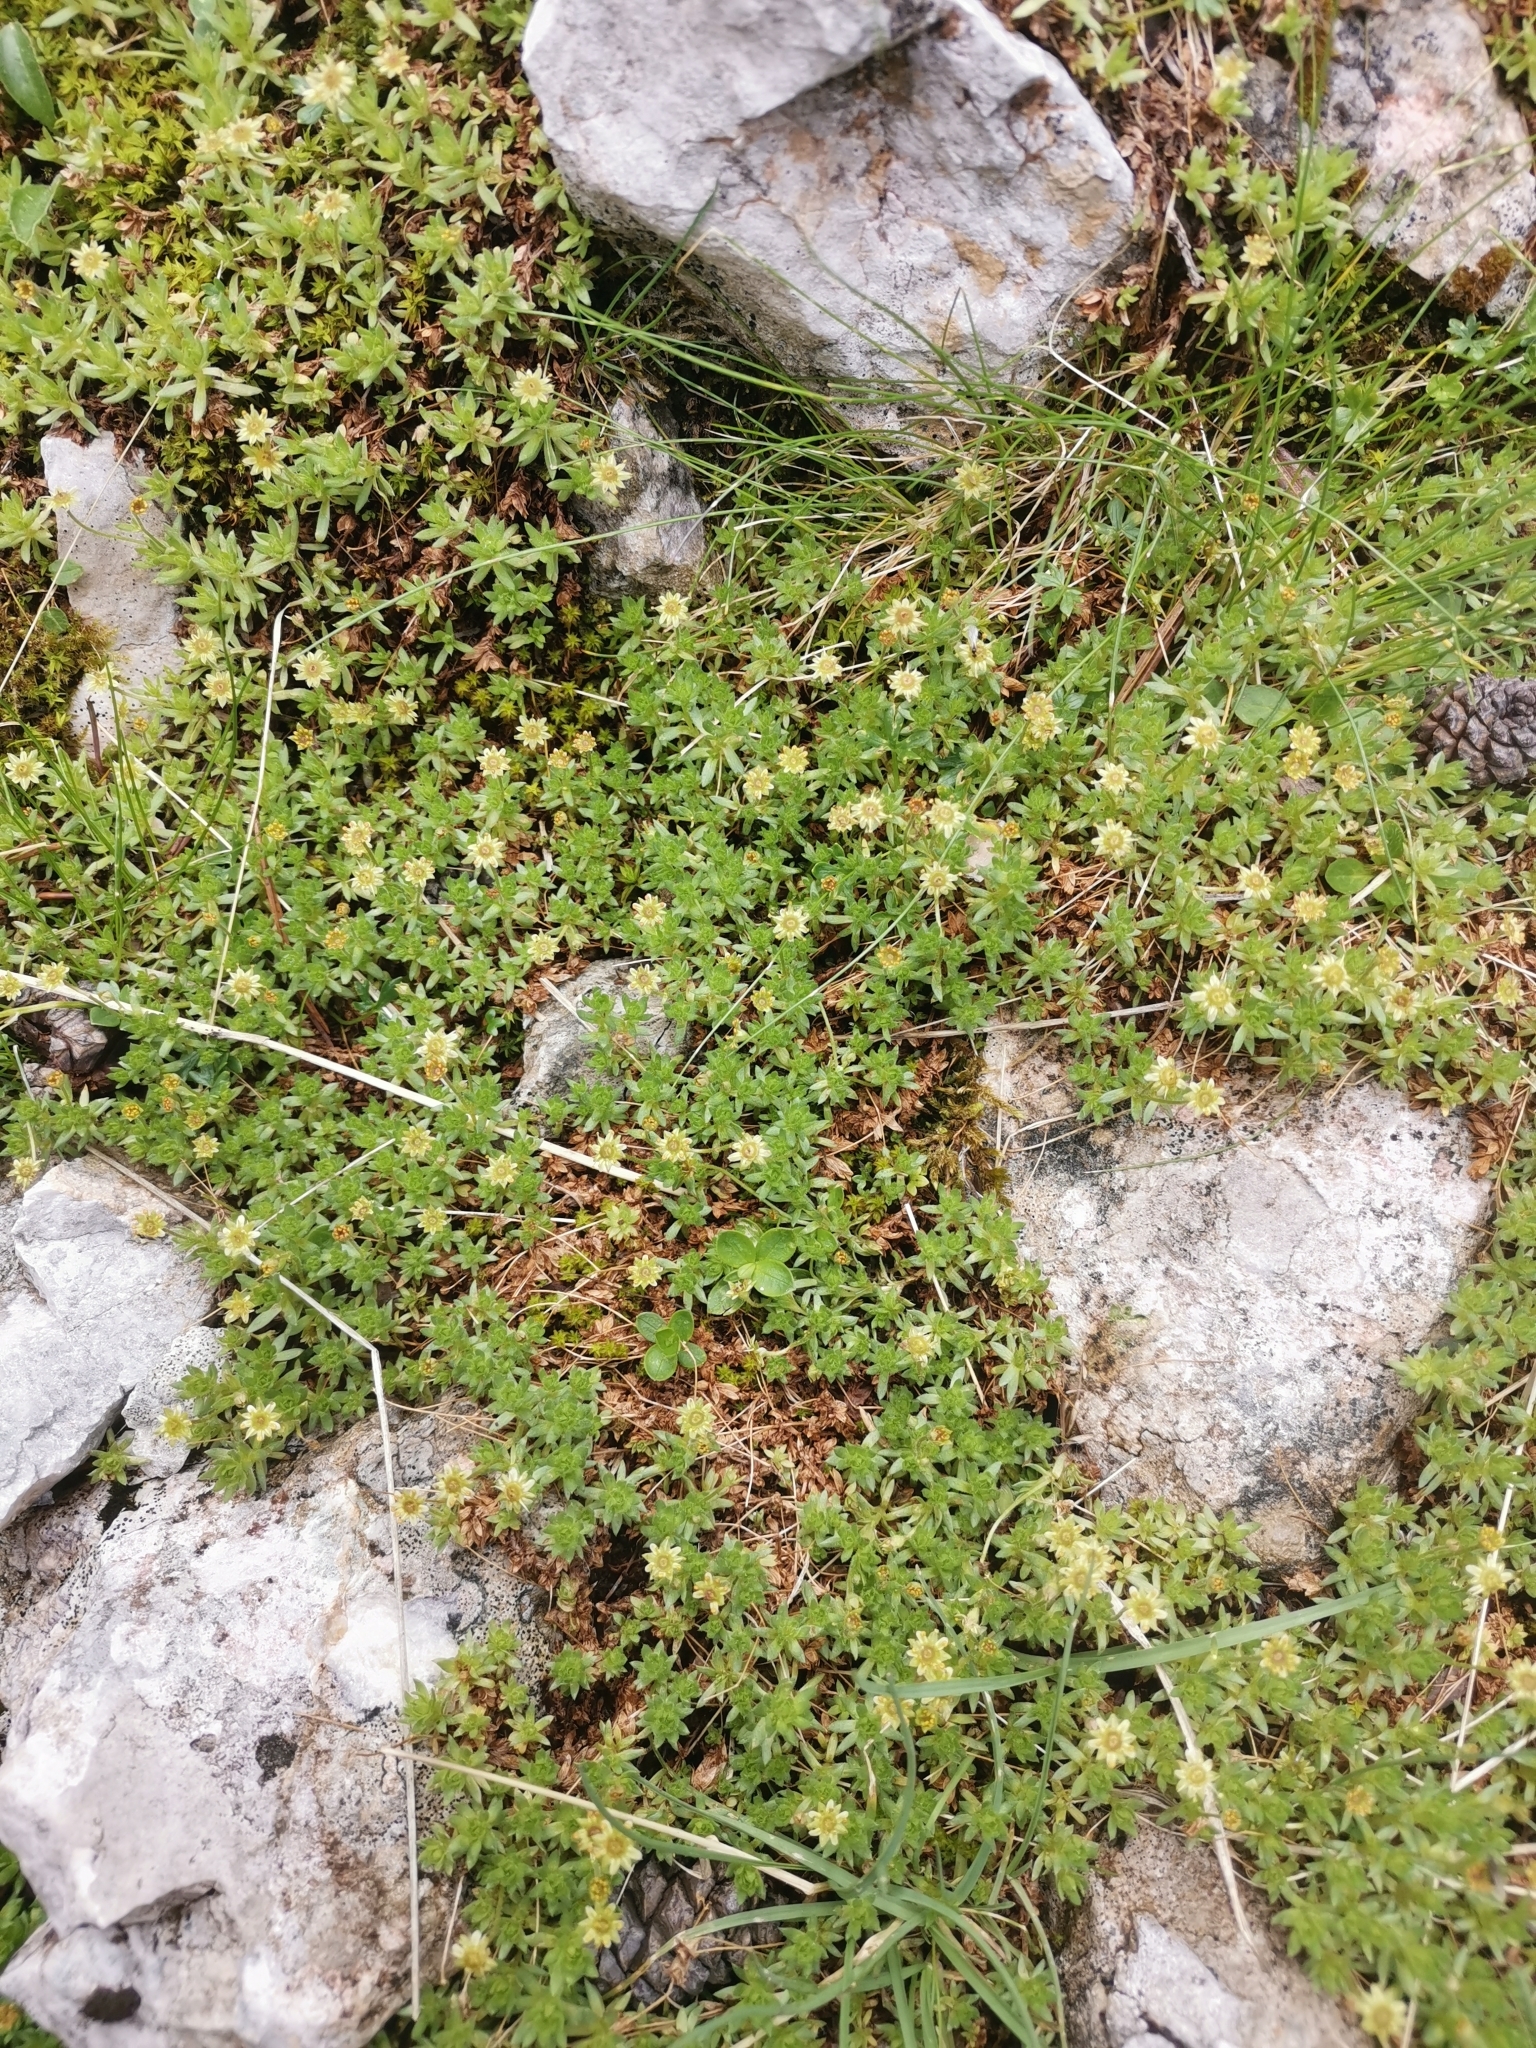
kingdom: Plantae
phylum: Tracheophyta
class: Magnoliopsida
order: Saxifragales
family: Saxifragaceae
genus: Saxifraga
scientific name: Saxifraga sedoides
